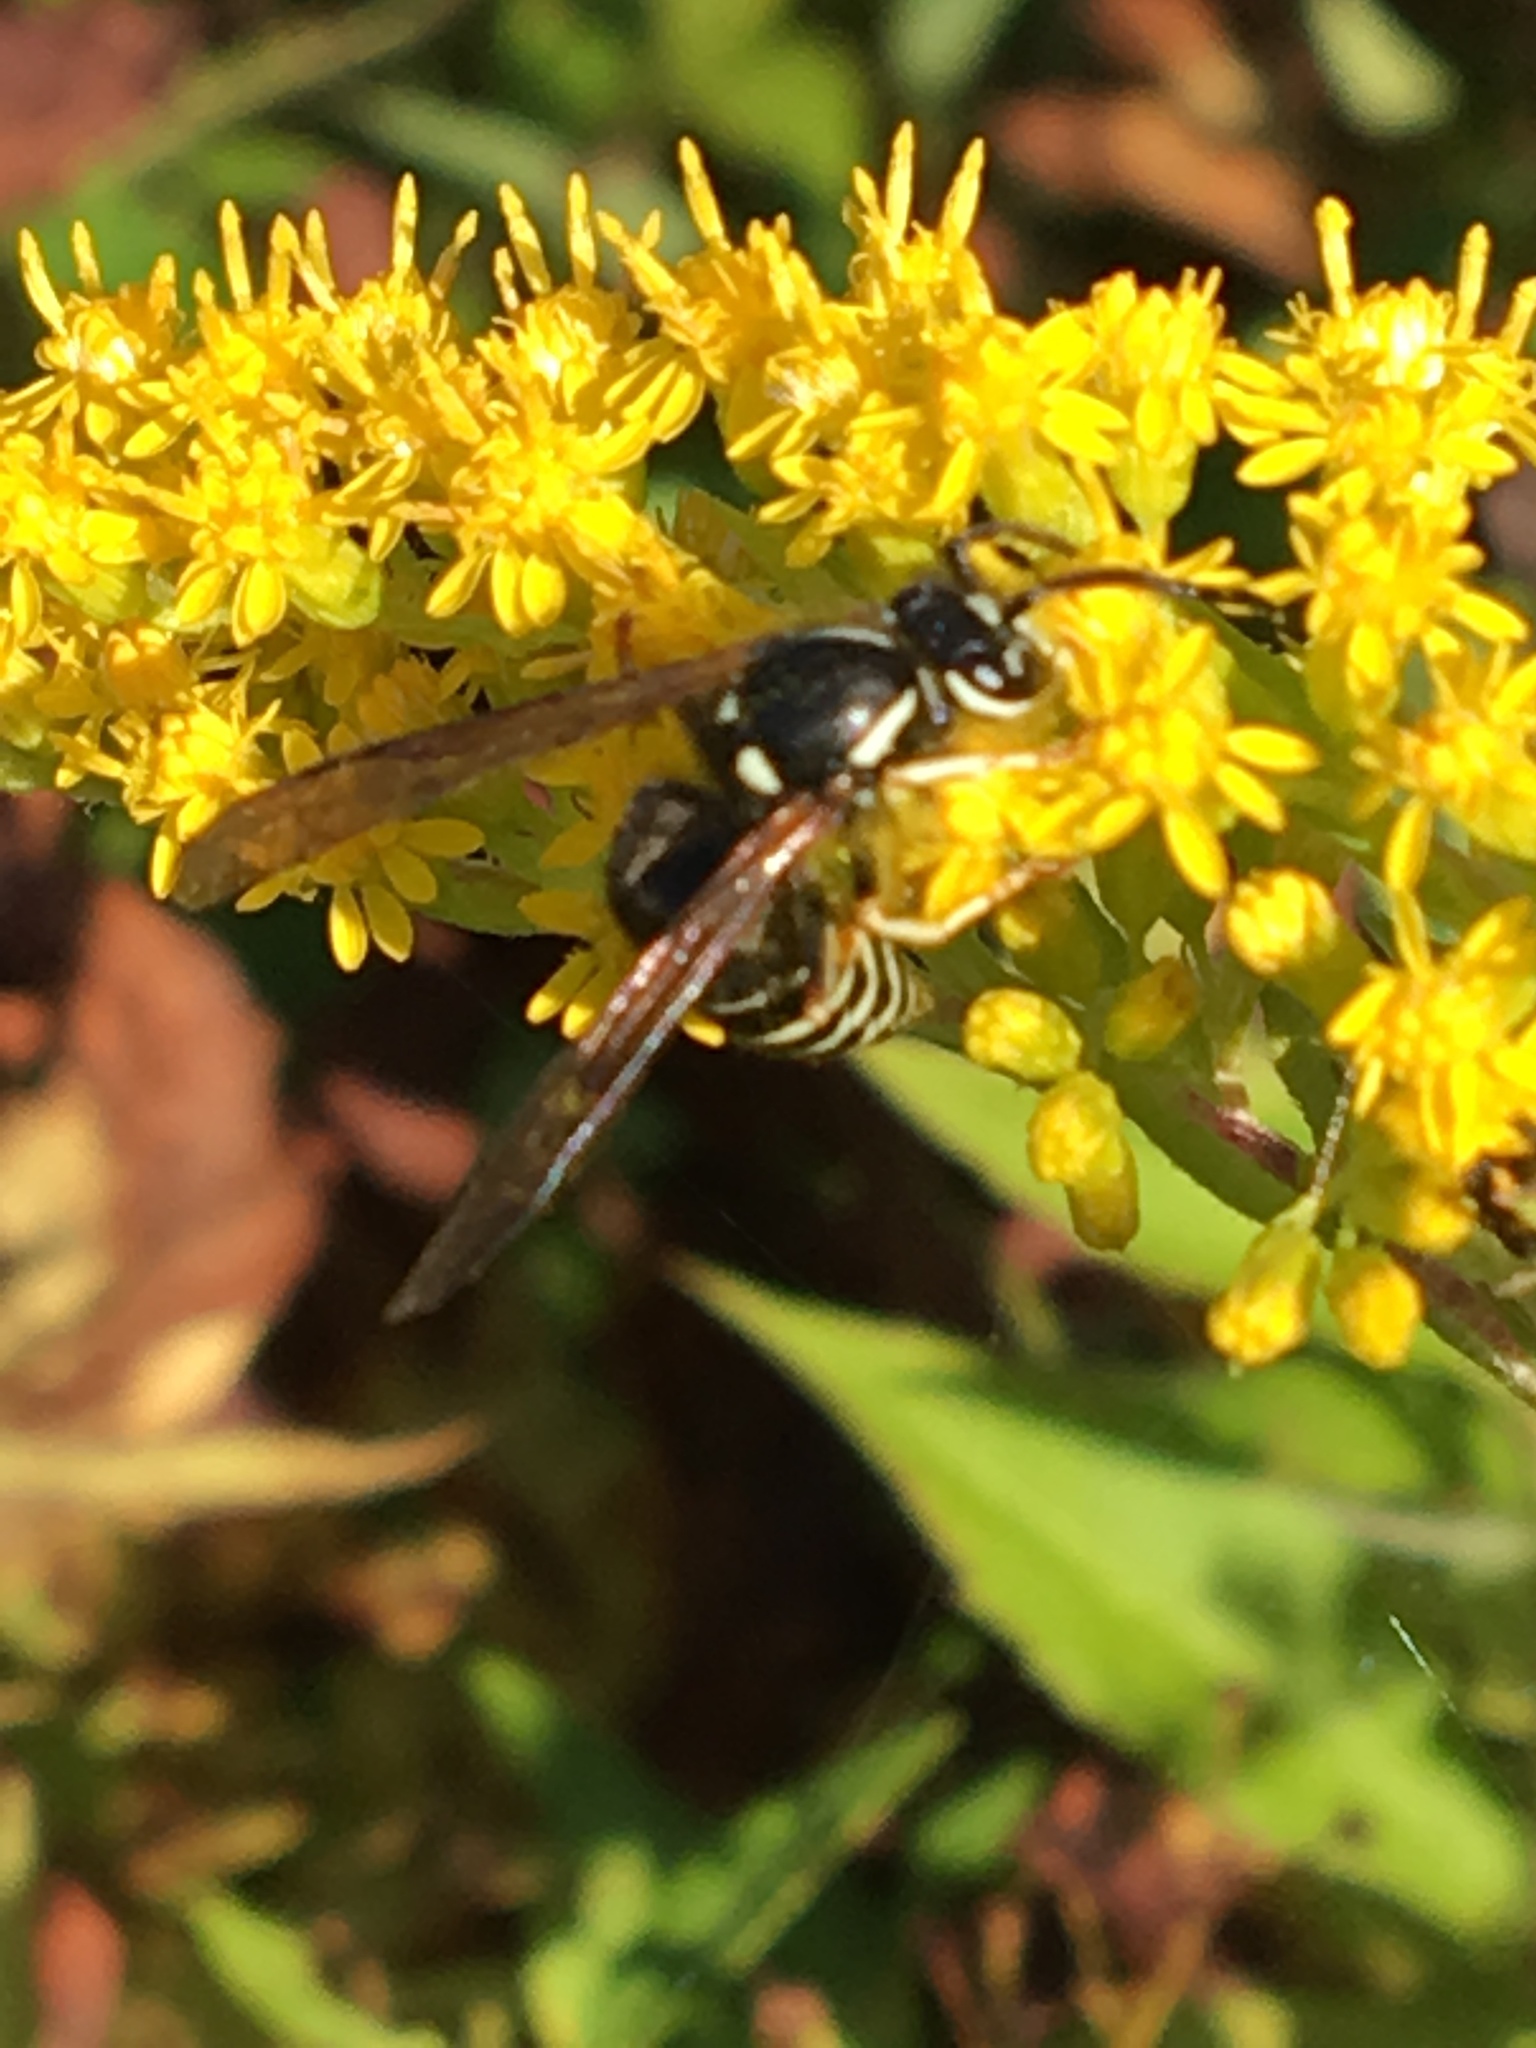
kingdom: Animalia
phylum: Arthropoda
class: Insecta
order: Hymenoptera
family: Vespidae
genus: Vespula
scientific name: Vespula consobrina
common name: Blackjacket
